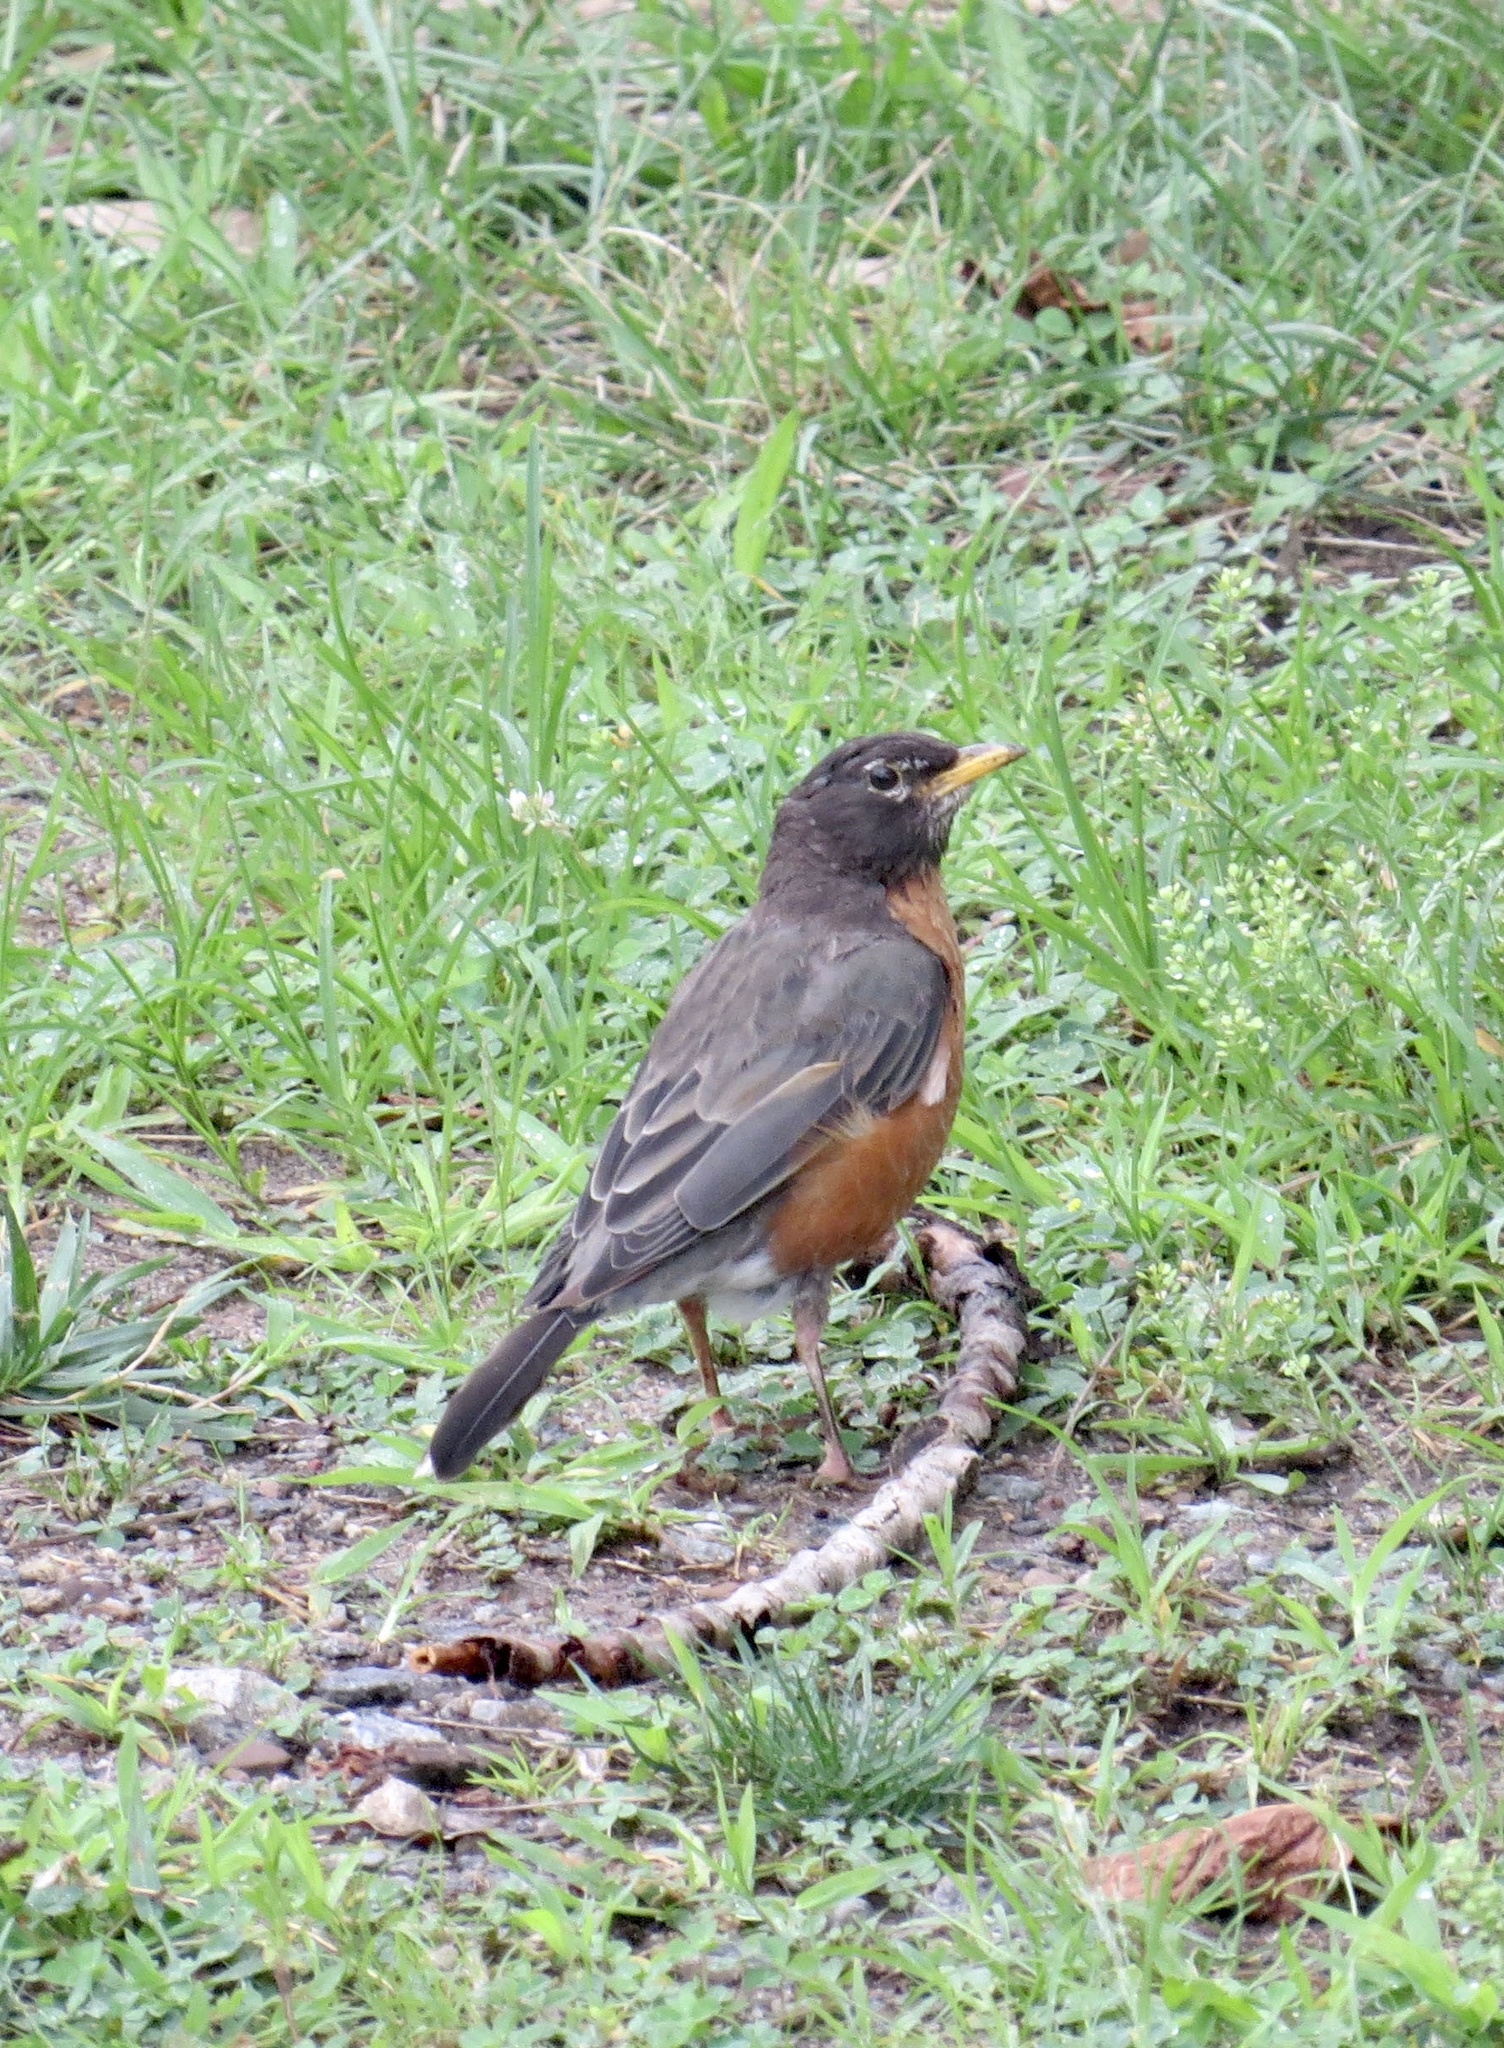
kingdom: Animalia
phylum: Chordata
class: Aves
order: Passeriformes
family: Turdidae
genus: Turdus
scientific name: Turdus migratorius
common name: American robin
